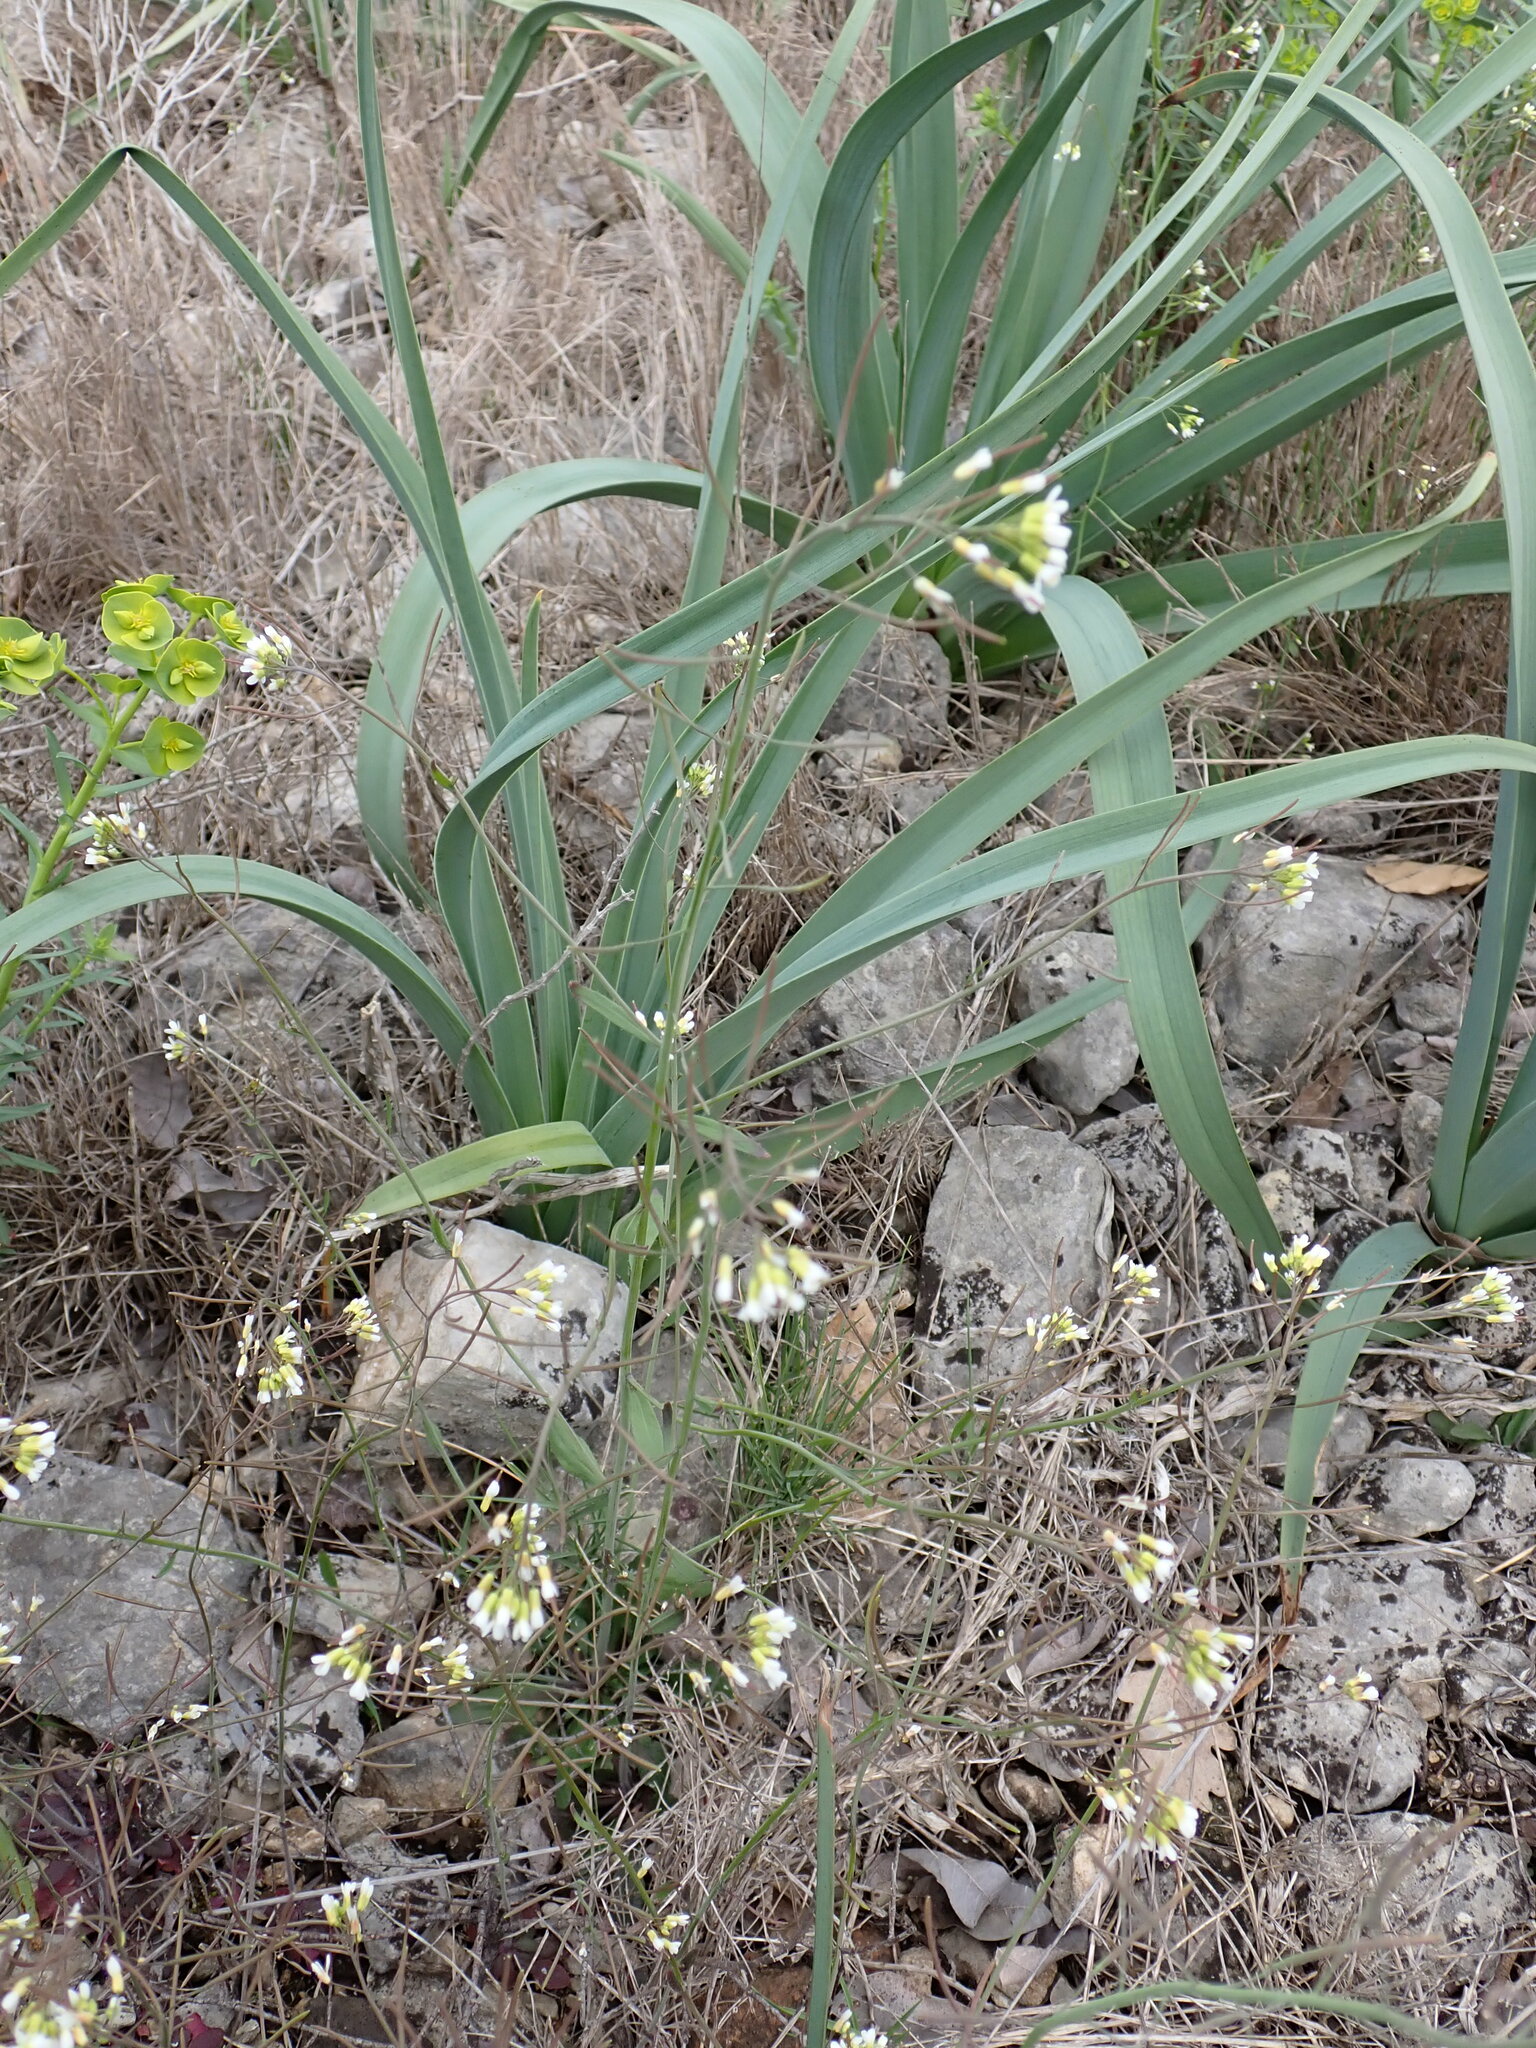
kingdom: Plantae
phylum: Tracheophyta
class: Magnoliopsida
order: Brassicales
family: Brassicaceae
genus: Arabidopsis
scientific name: Arabidopsis thaliana
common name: Thale cress
